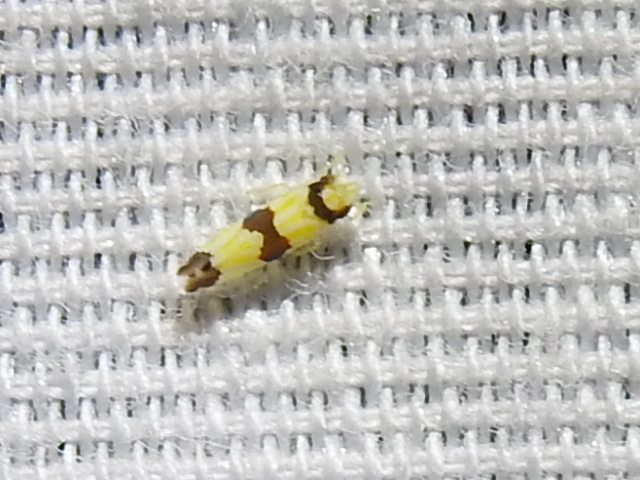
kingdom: Animalia
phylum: Arthropoda
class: Insecta
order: Hemiptera
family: Cicadellidae
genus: Erythroneura
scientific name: Erythroneura calycula
